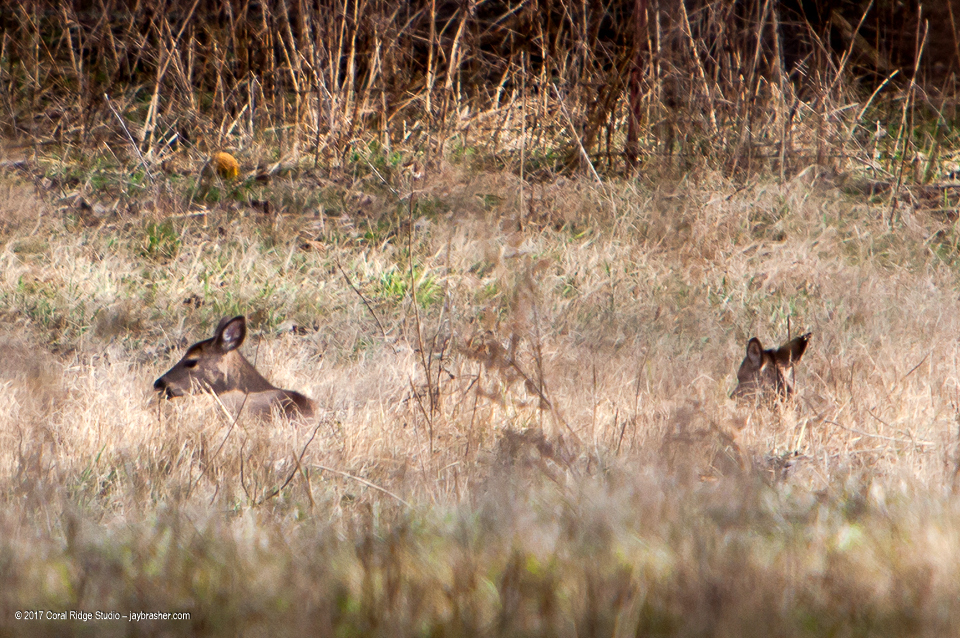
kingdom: Animalia
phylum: Chordata
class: Mammalia
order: Artiodactyla
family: Cervidae
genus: Odocoileus
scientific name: Odocoileus virginianus
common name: White-tailed deer
